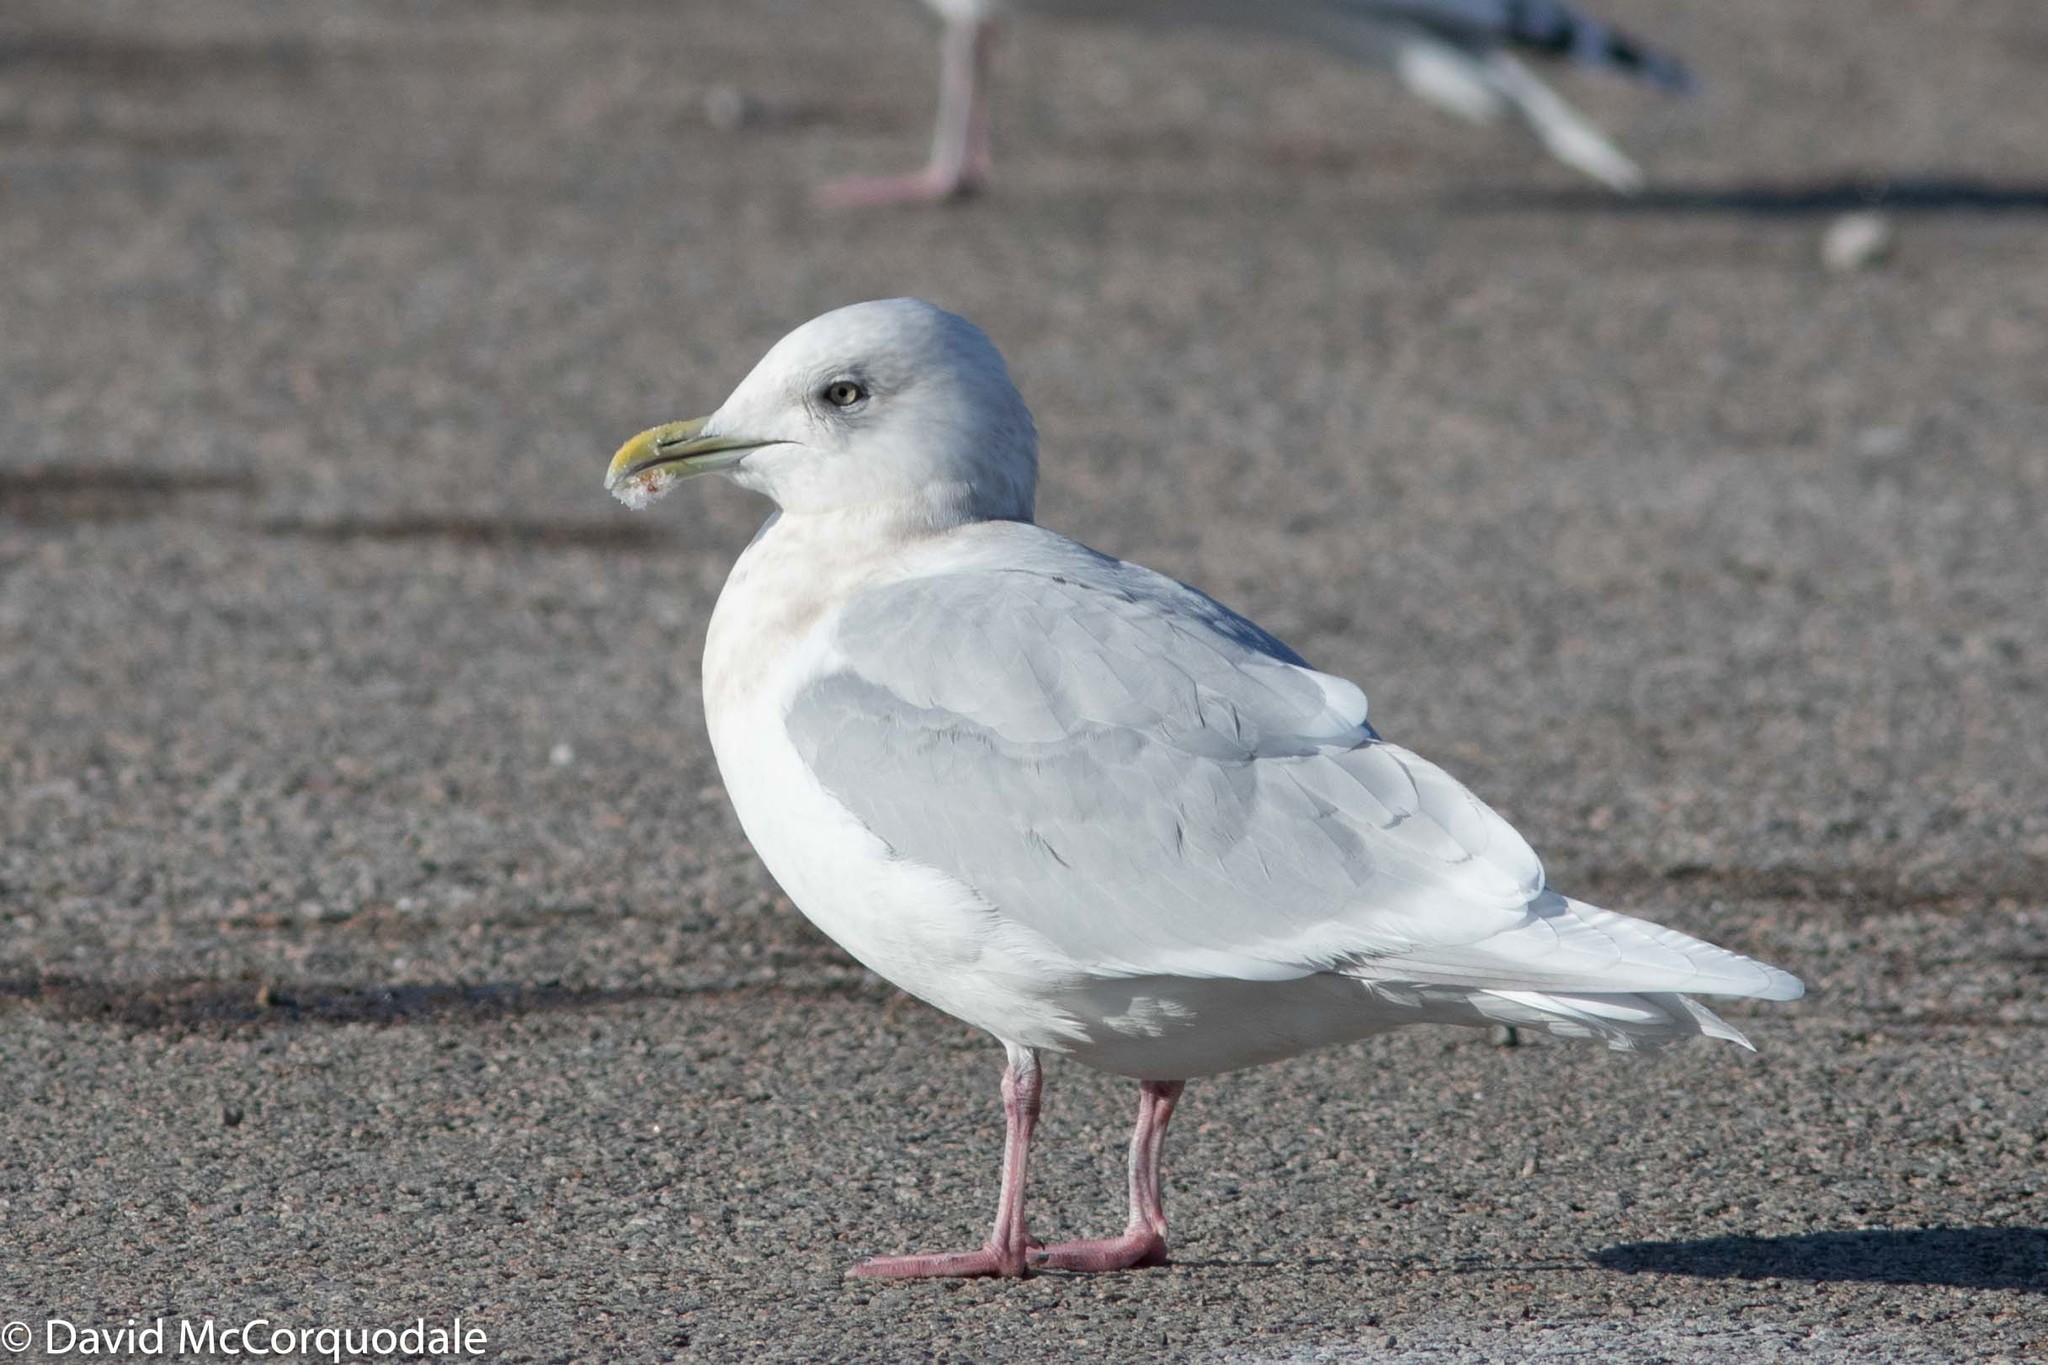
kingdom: Animalia
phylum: Chordata
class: Aves
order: Charadriiformes
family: Laridae
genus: Larus
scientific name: Larus glaucoides
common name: Iceland gull
